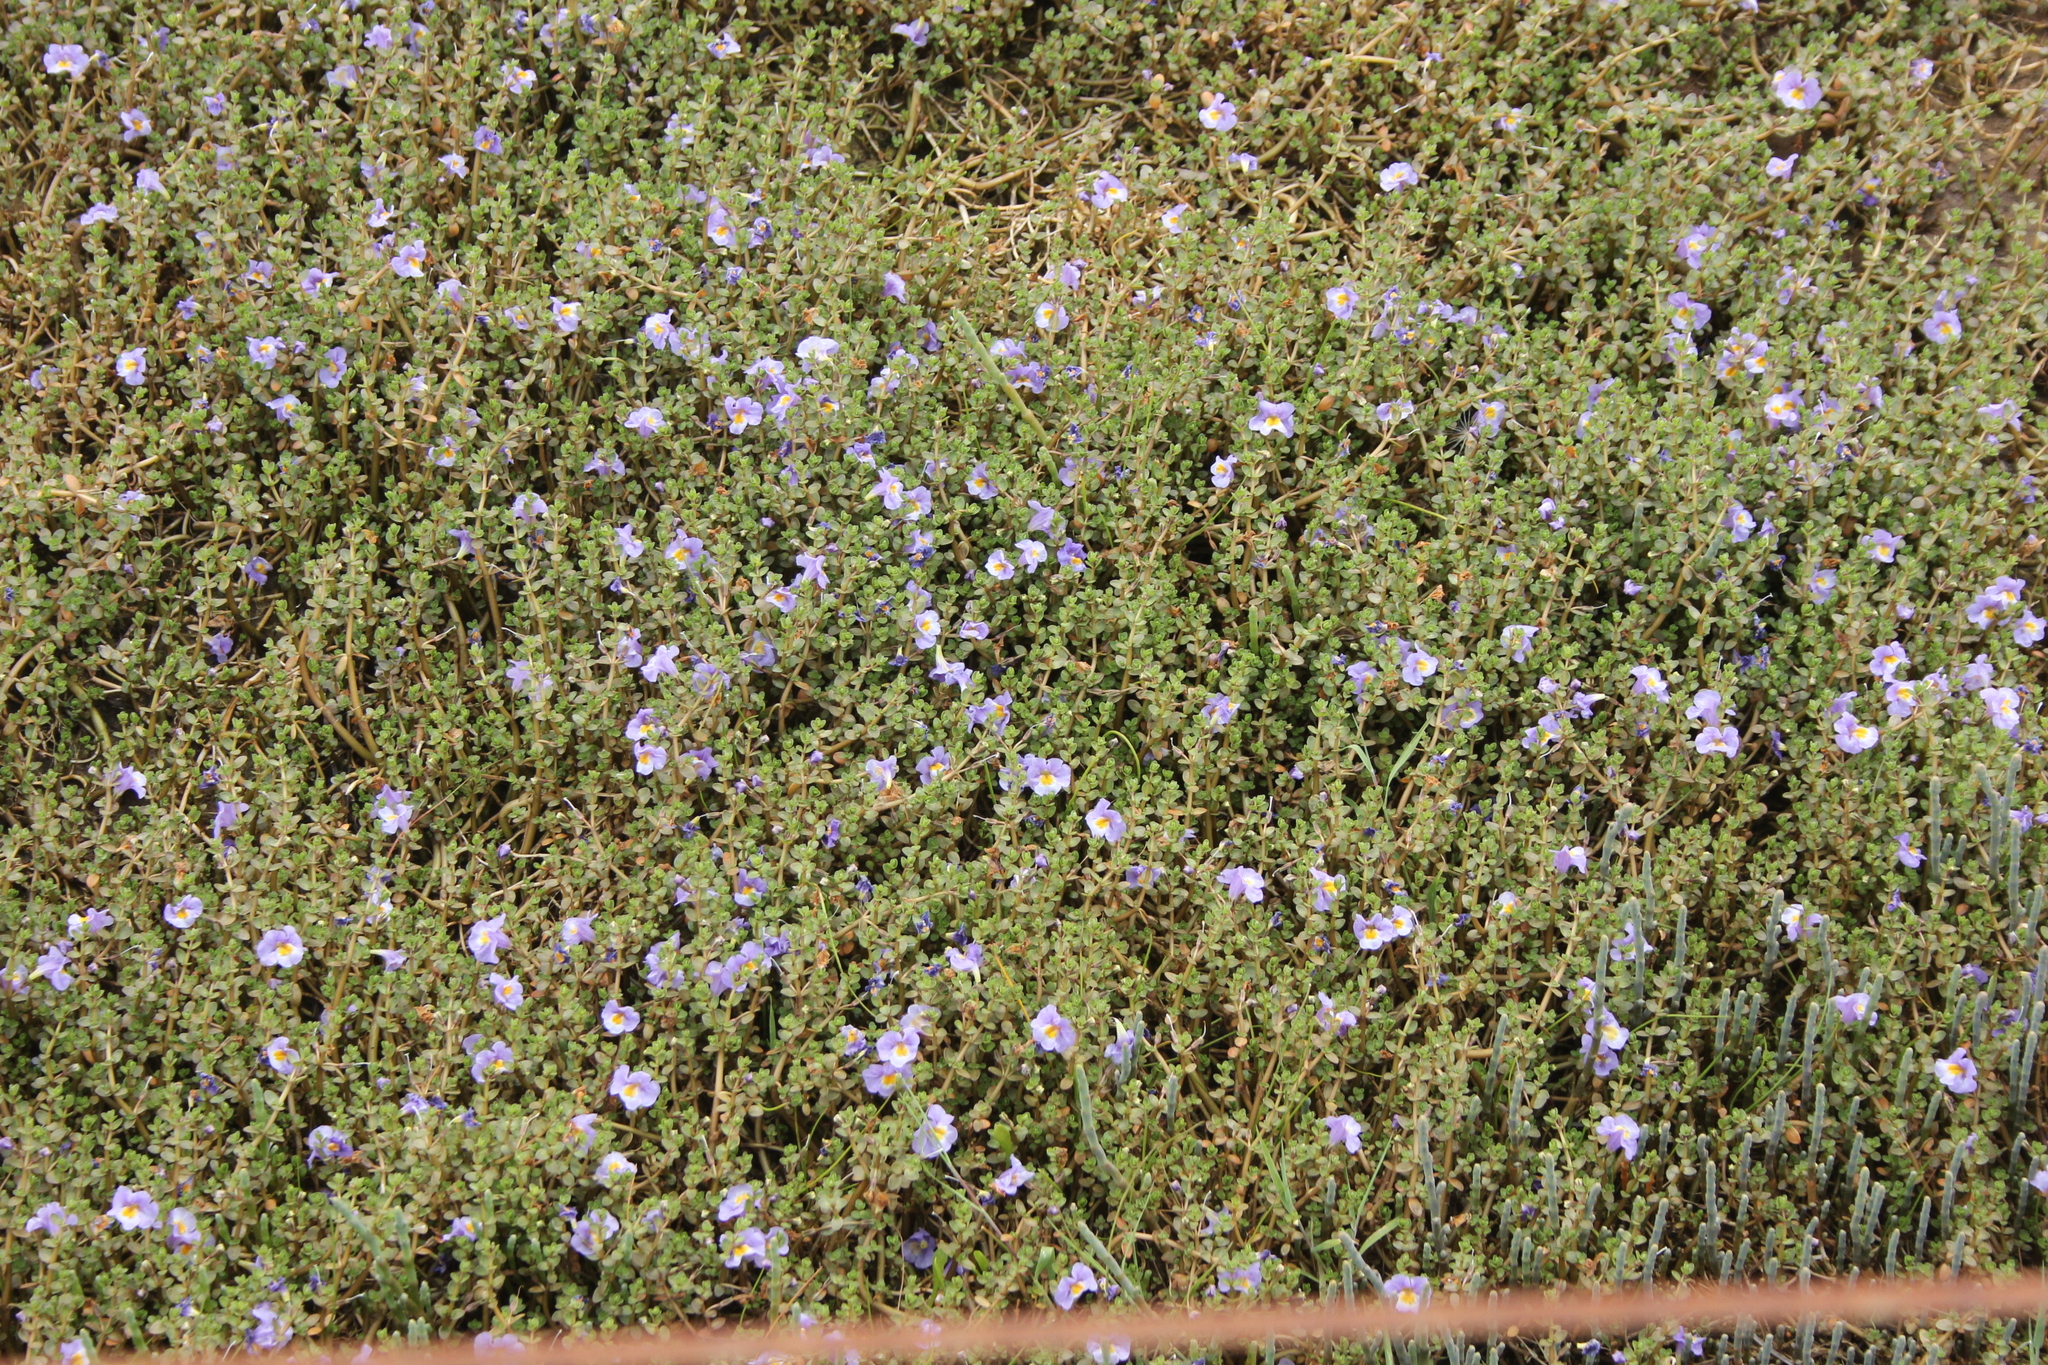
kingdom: Plantae
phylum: Tracheophyta
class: Magnoliopsida
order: Lamiales
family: Phrymaceae
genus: Thyridia
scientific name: Thyridia repens
